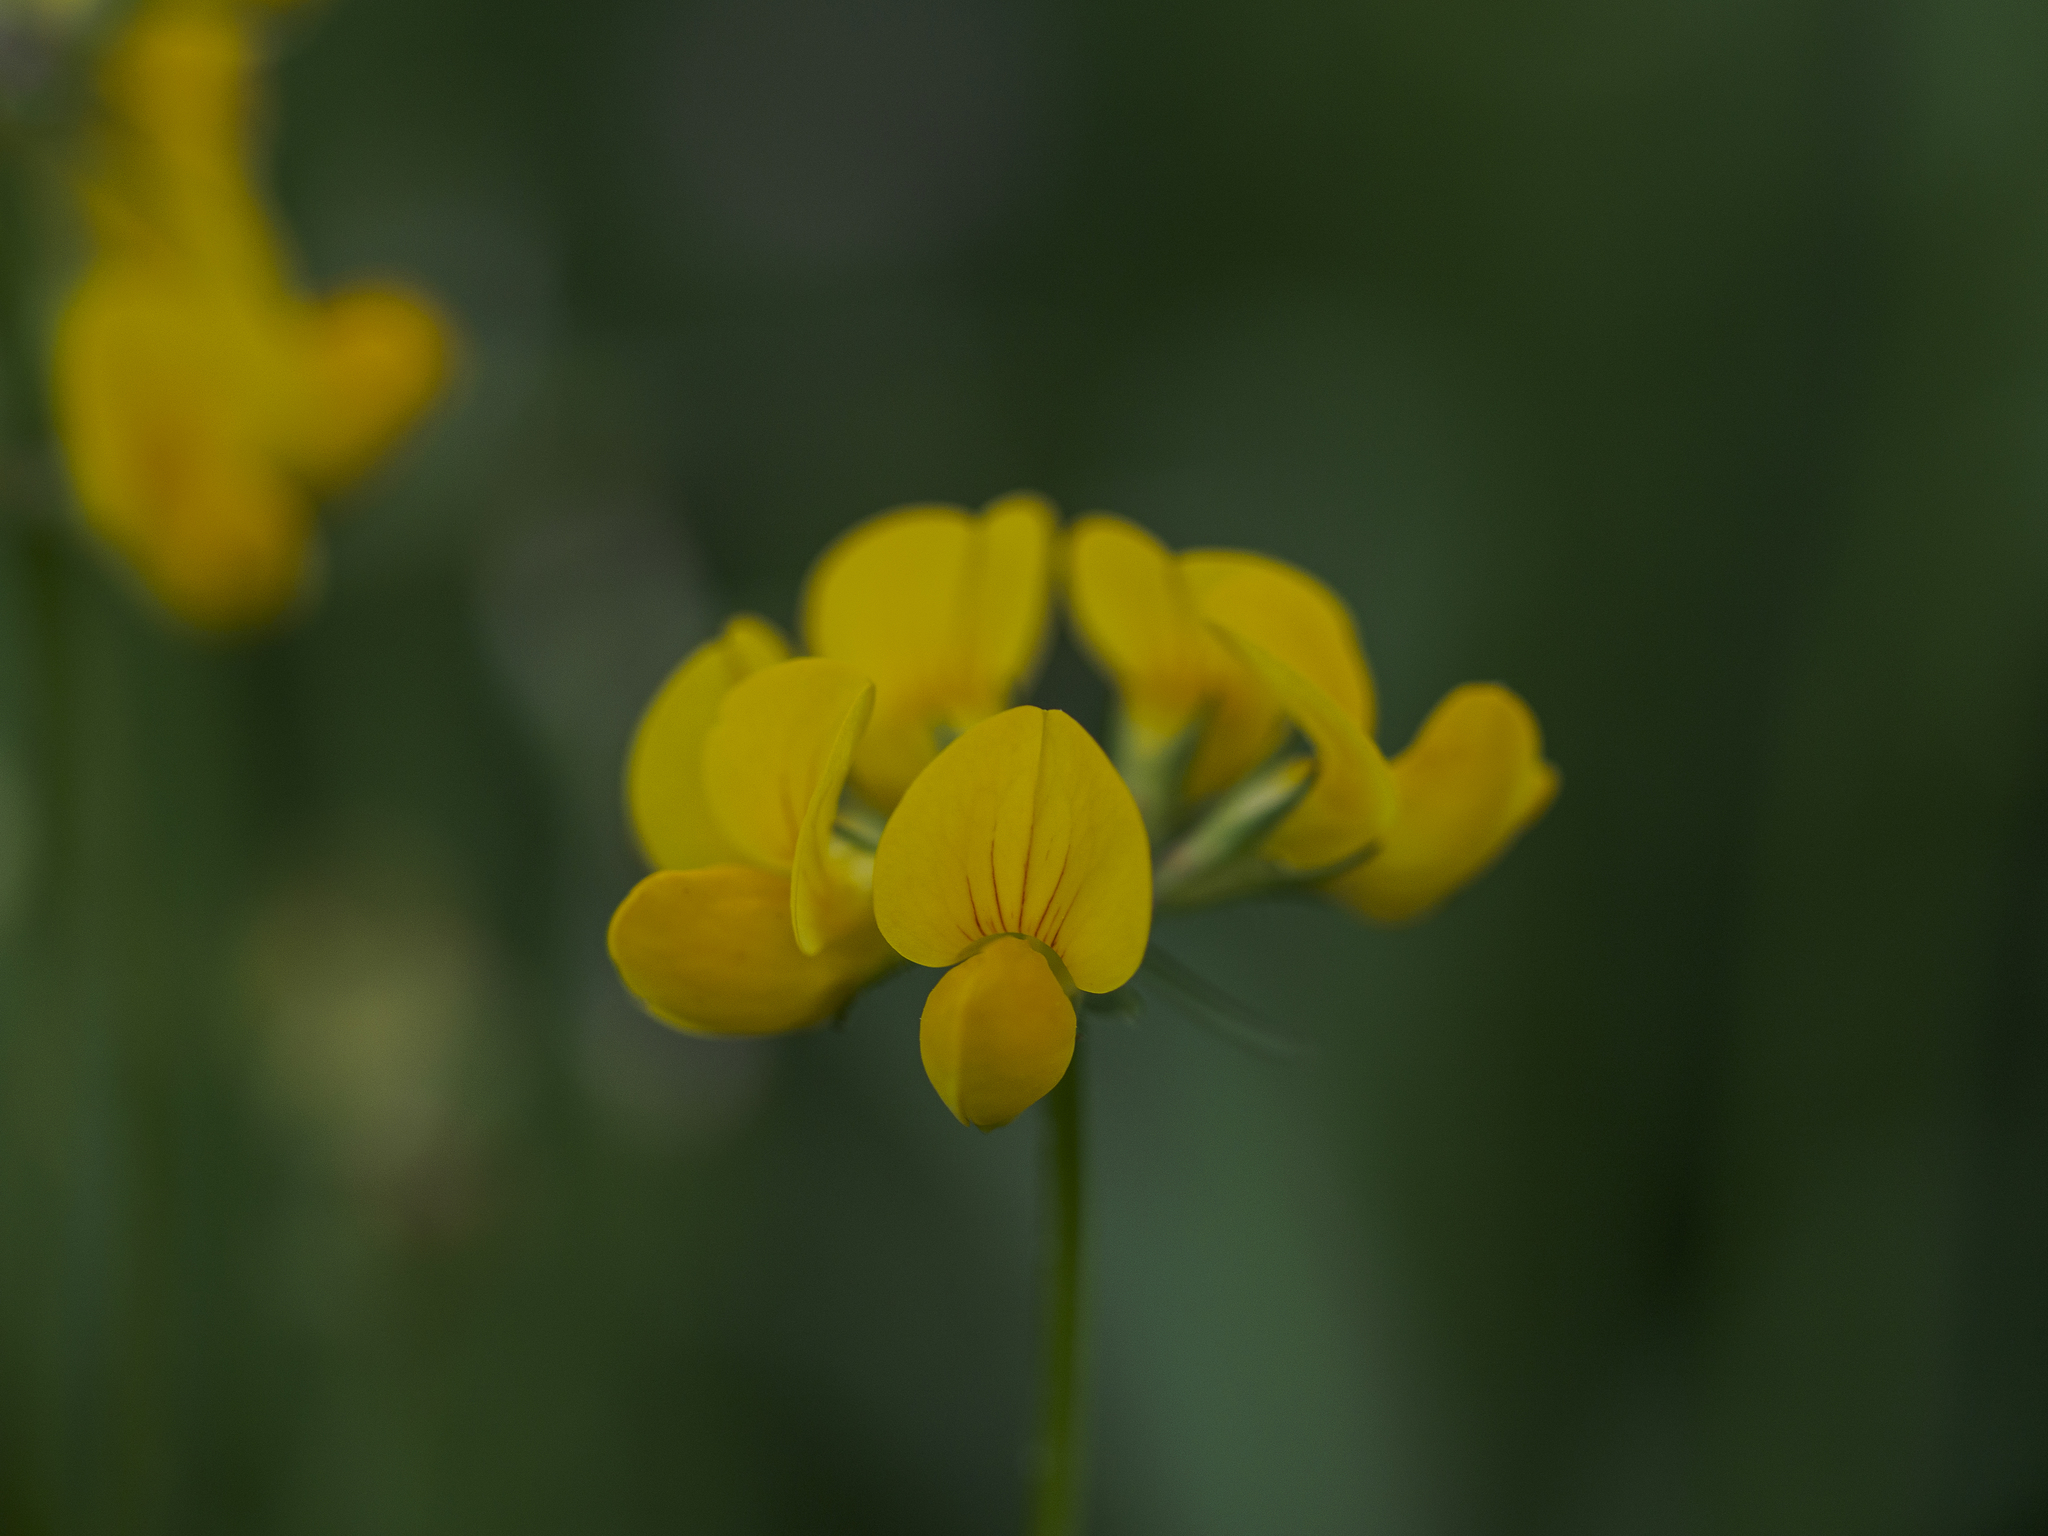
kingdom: Plantae
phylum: Tracheophyta
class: Magnoliopsida
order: Fabales
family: Fabaceae
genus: Lotus
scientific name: Lotus corniculatus
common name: Common bird's-foot-trefoil
